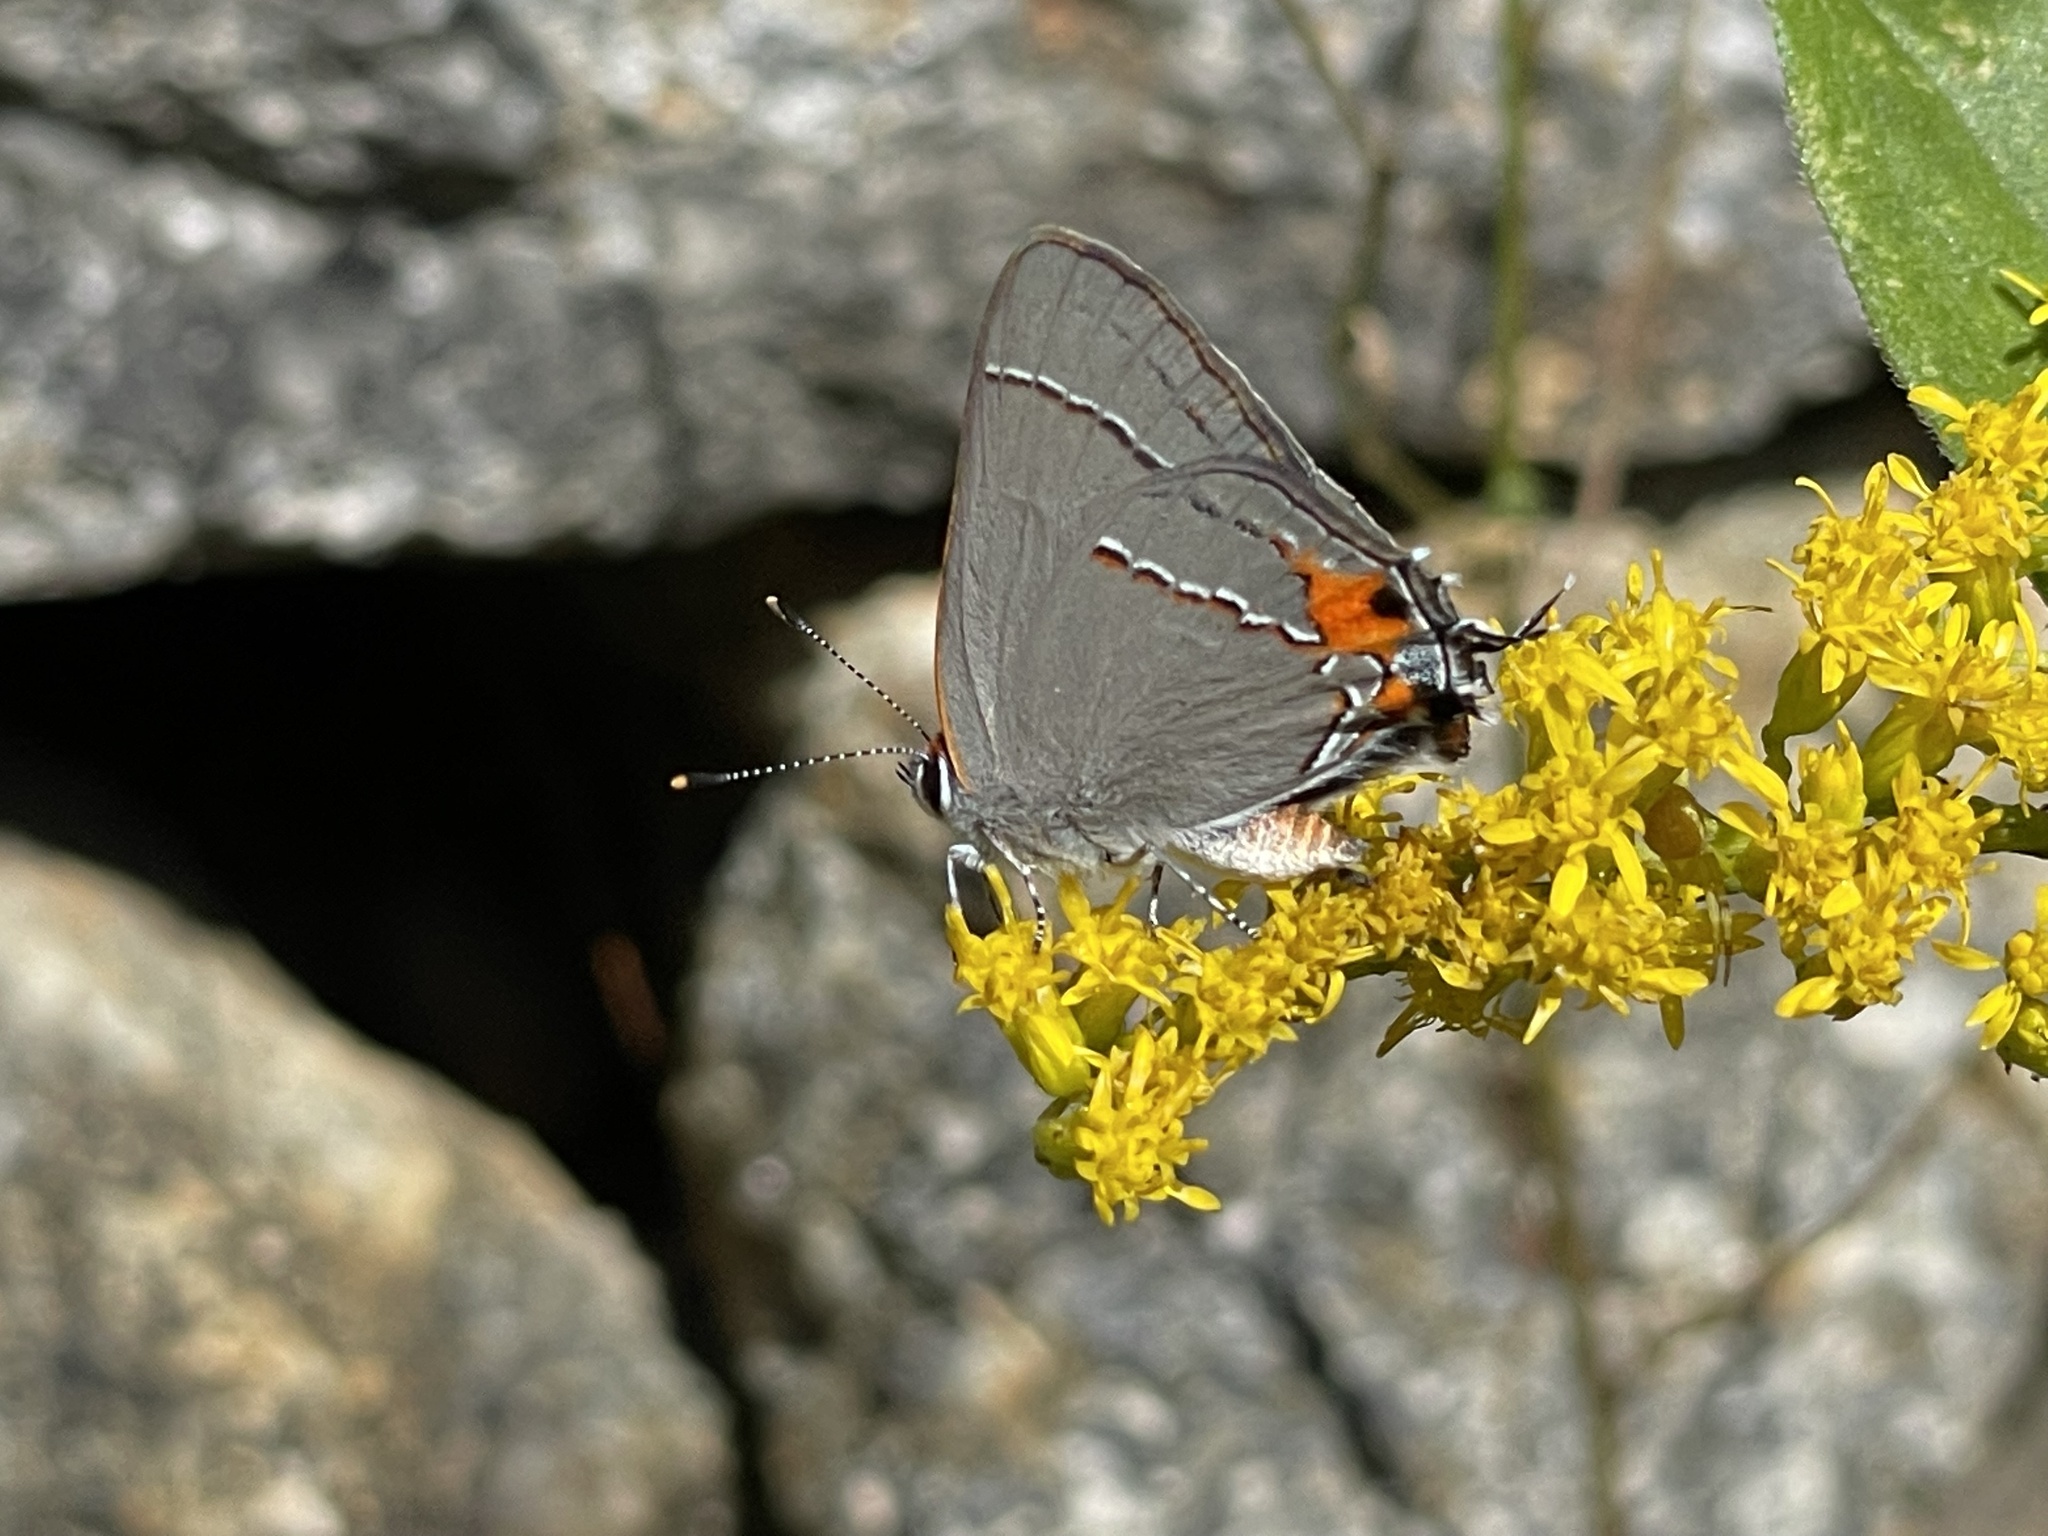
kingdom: Animalia
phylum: Arthropoda
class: Insecta
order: Lepidoptera
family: Lycaenidae
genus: Strymon
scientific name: Strymon melinus
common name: Gray hairstreak
